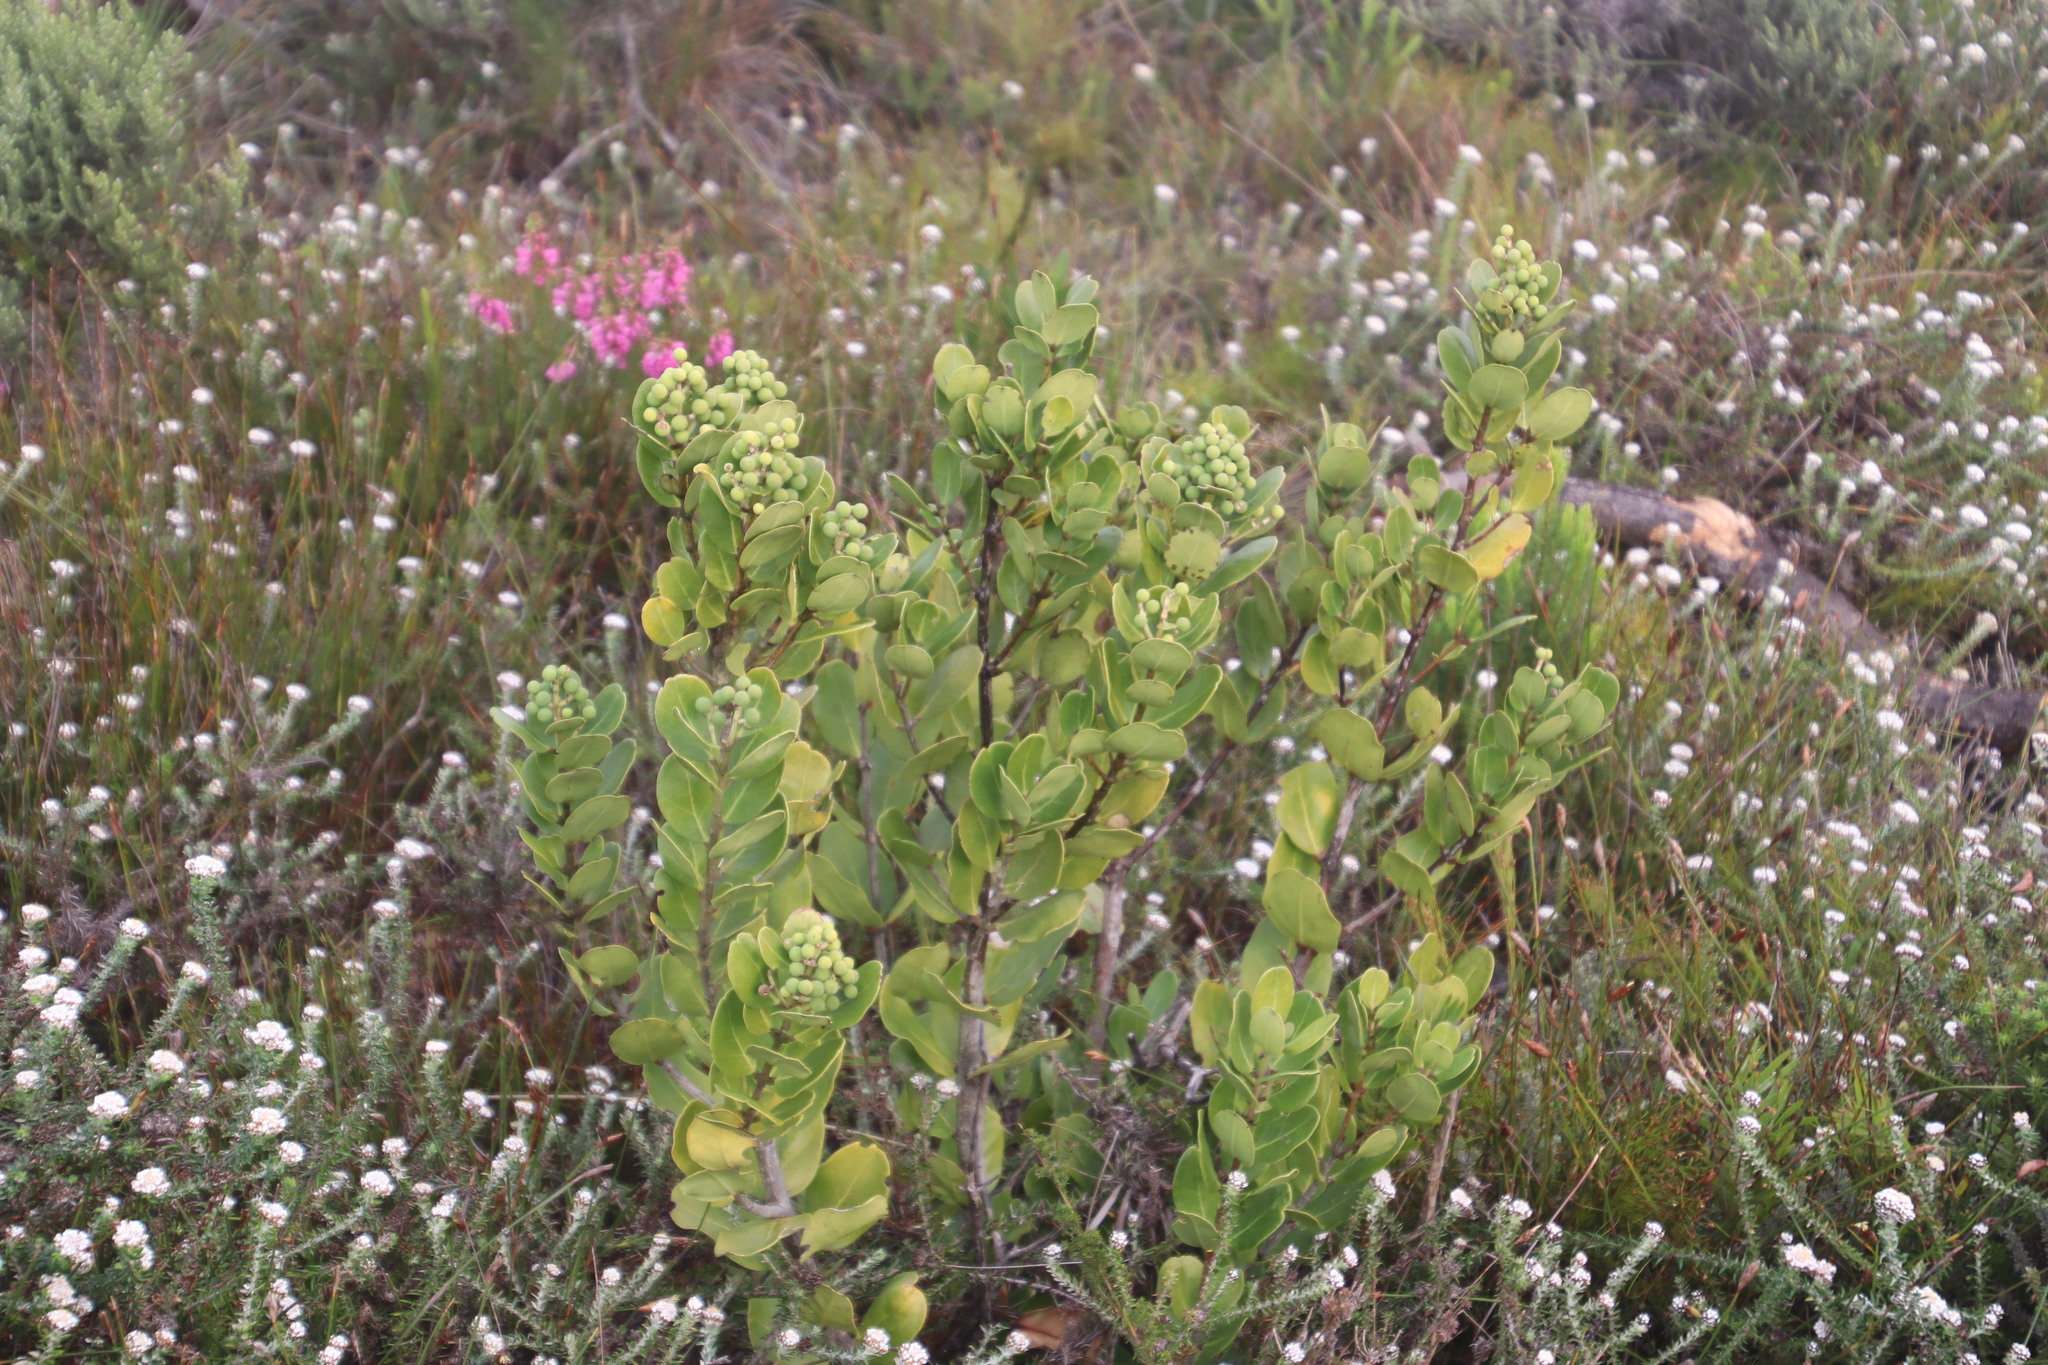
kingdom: Plantae
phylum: Tracheophyta
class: Magnoliopsida
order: Lamiales
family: Oleaceae
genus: Olea
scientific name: Olea capensis
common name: Black ironwood
